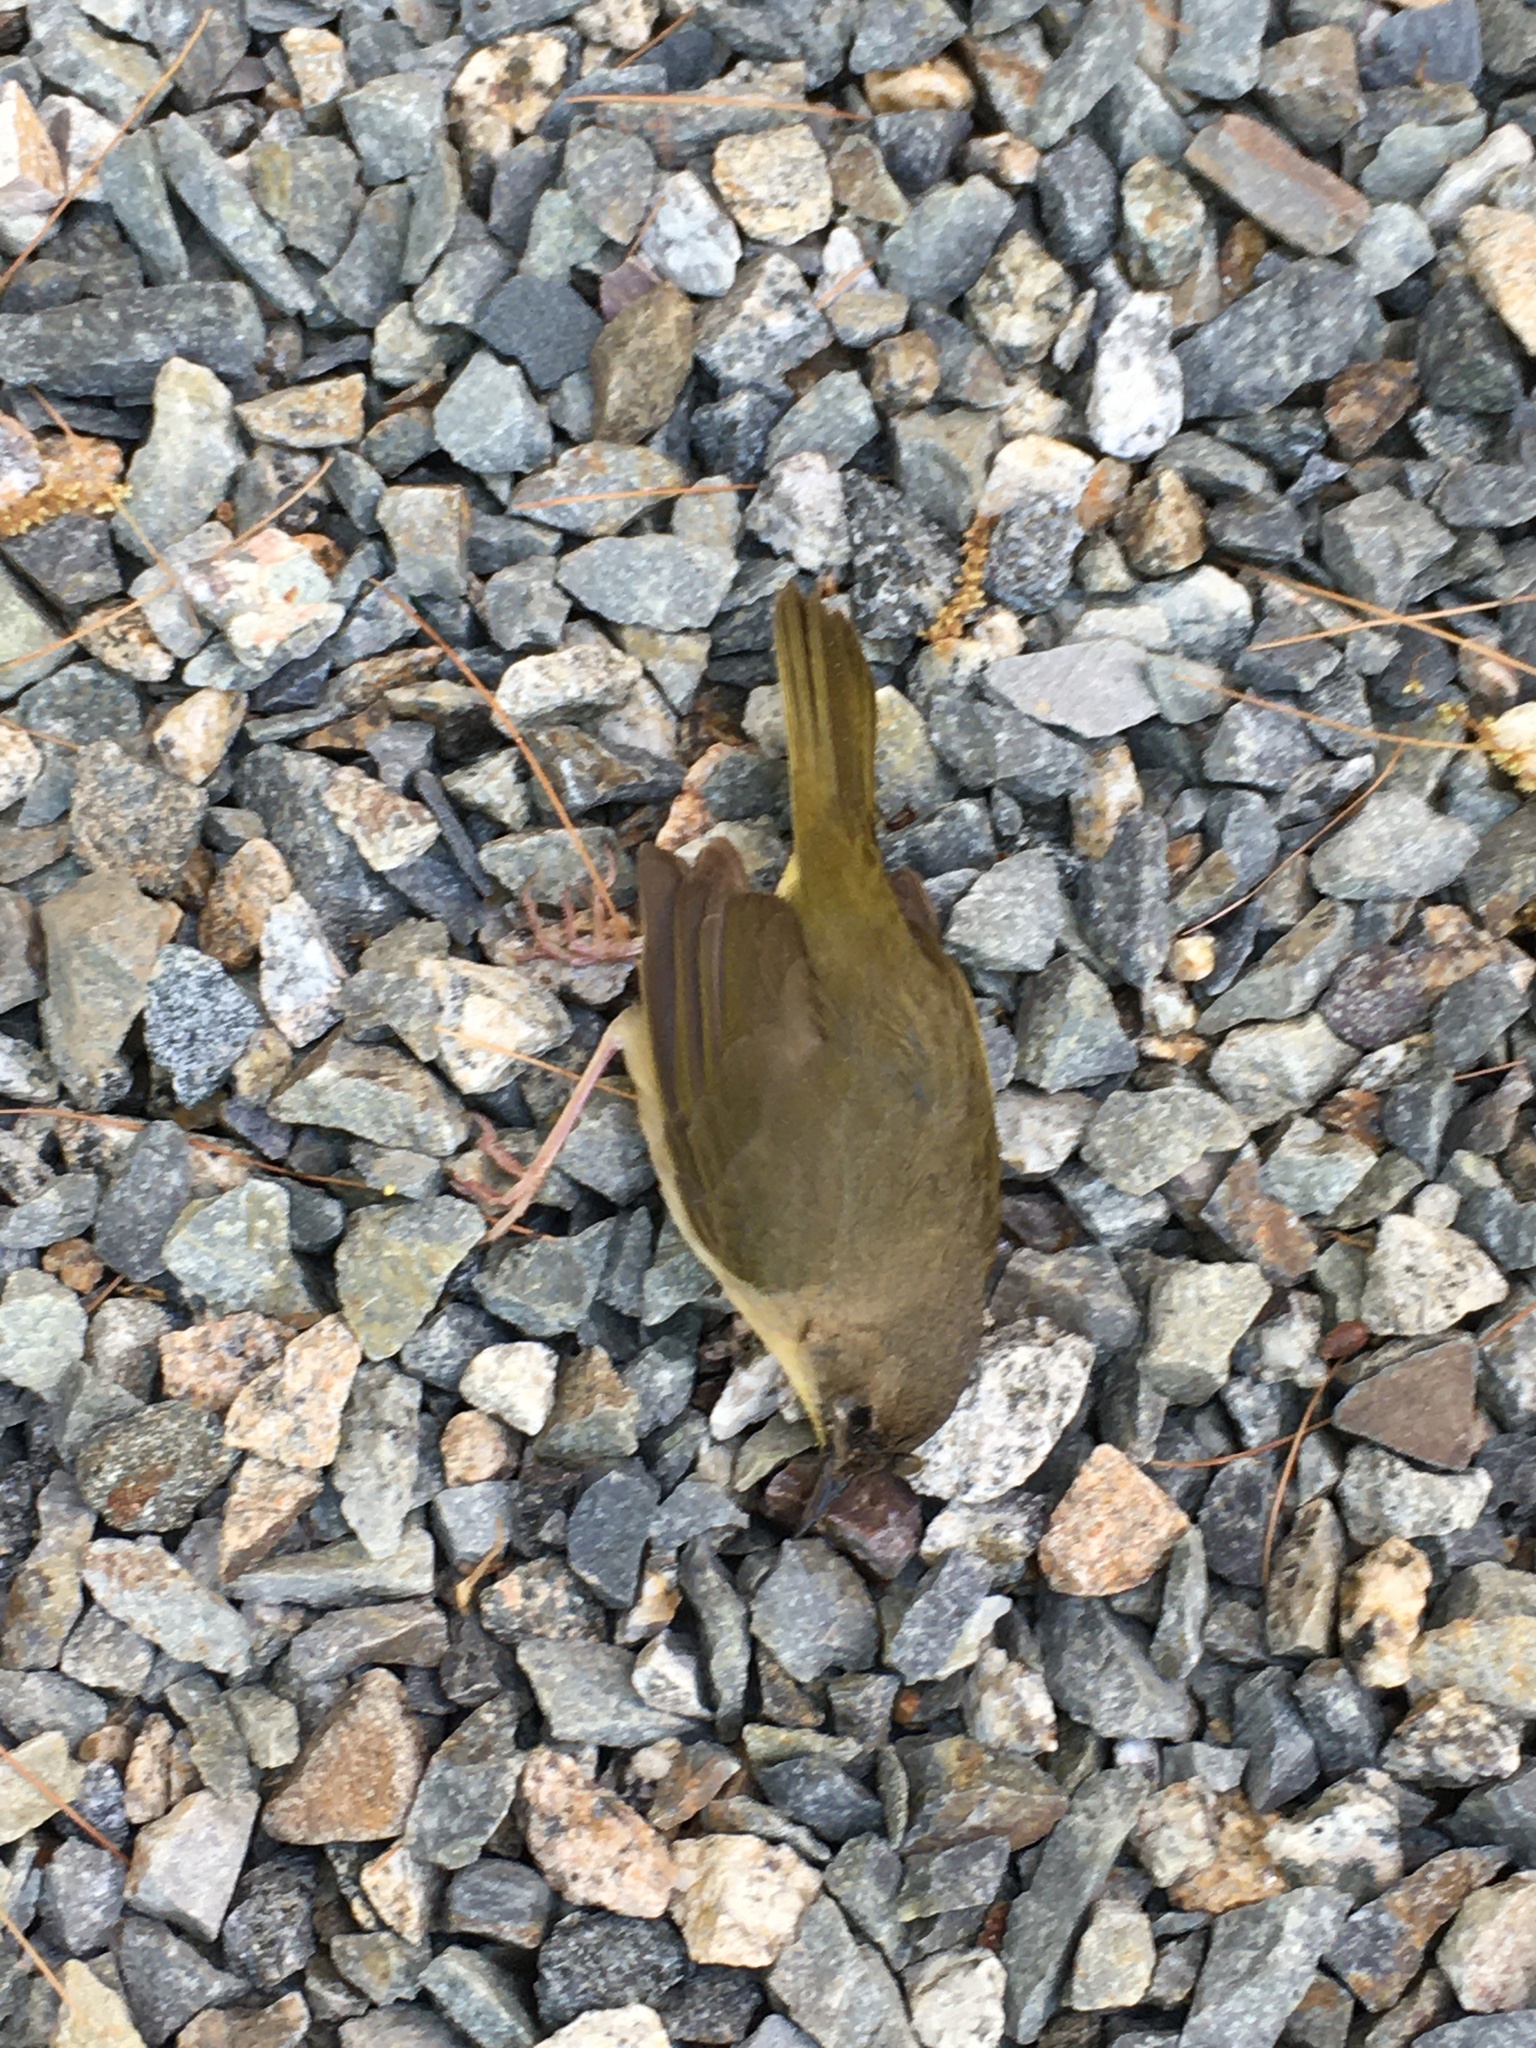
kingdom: Animalia
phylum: Chordata
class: Aves
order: Passeriformes
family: Parulidae
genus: Geothlypis
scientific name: Geothlypis trichas
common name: Common yellowthroat
